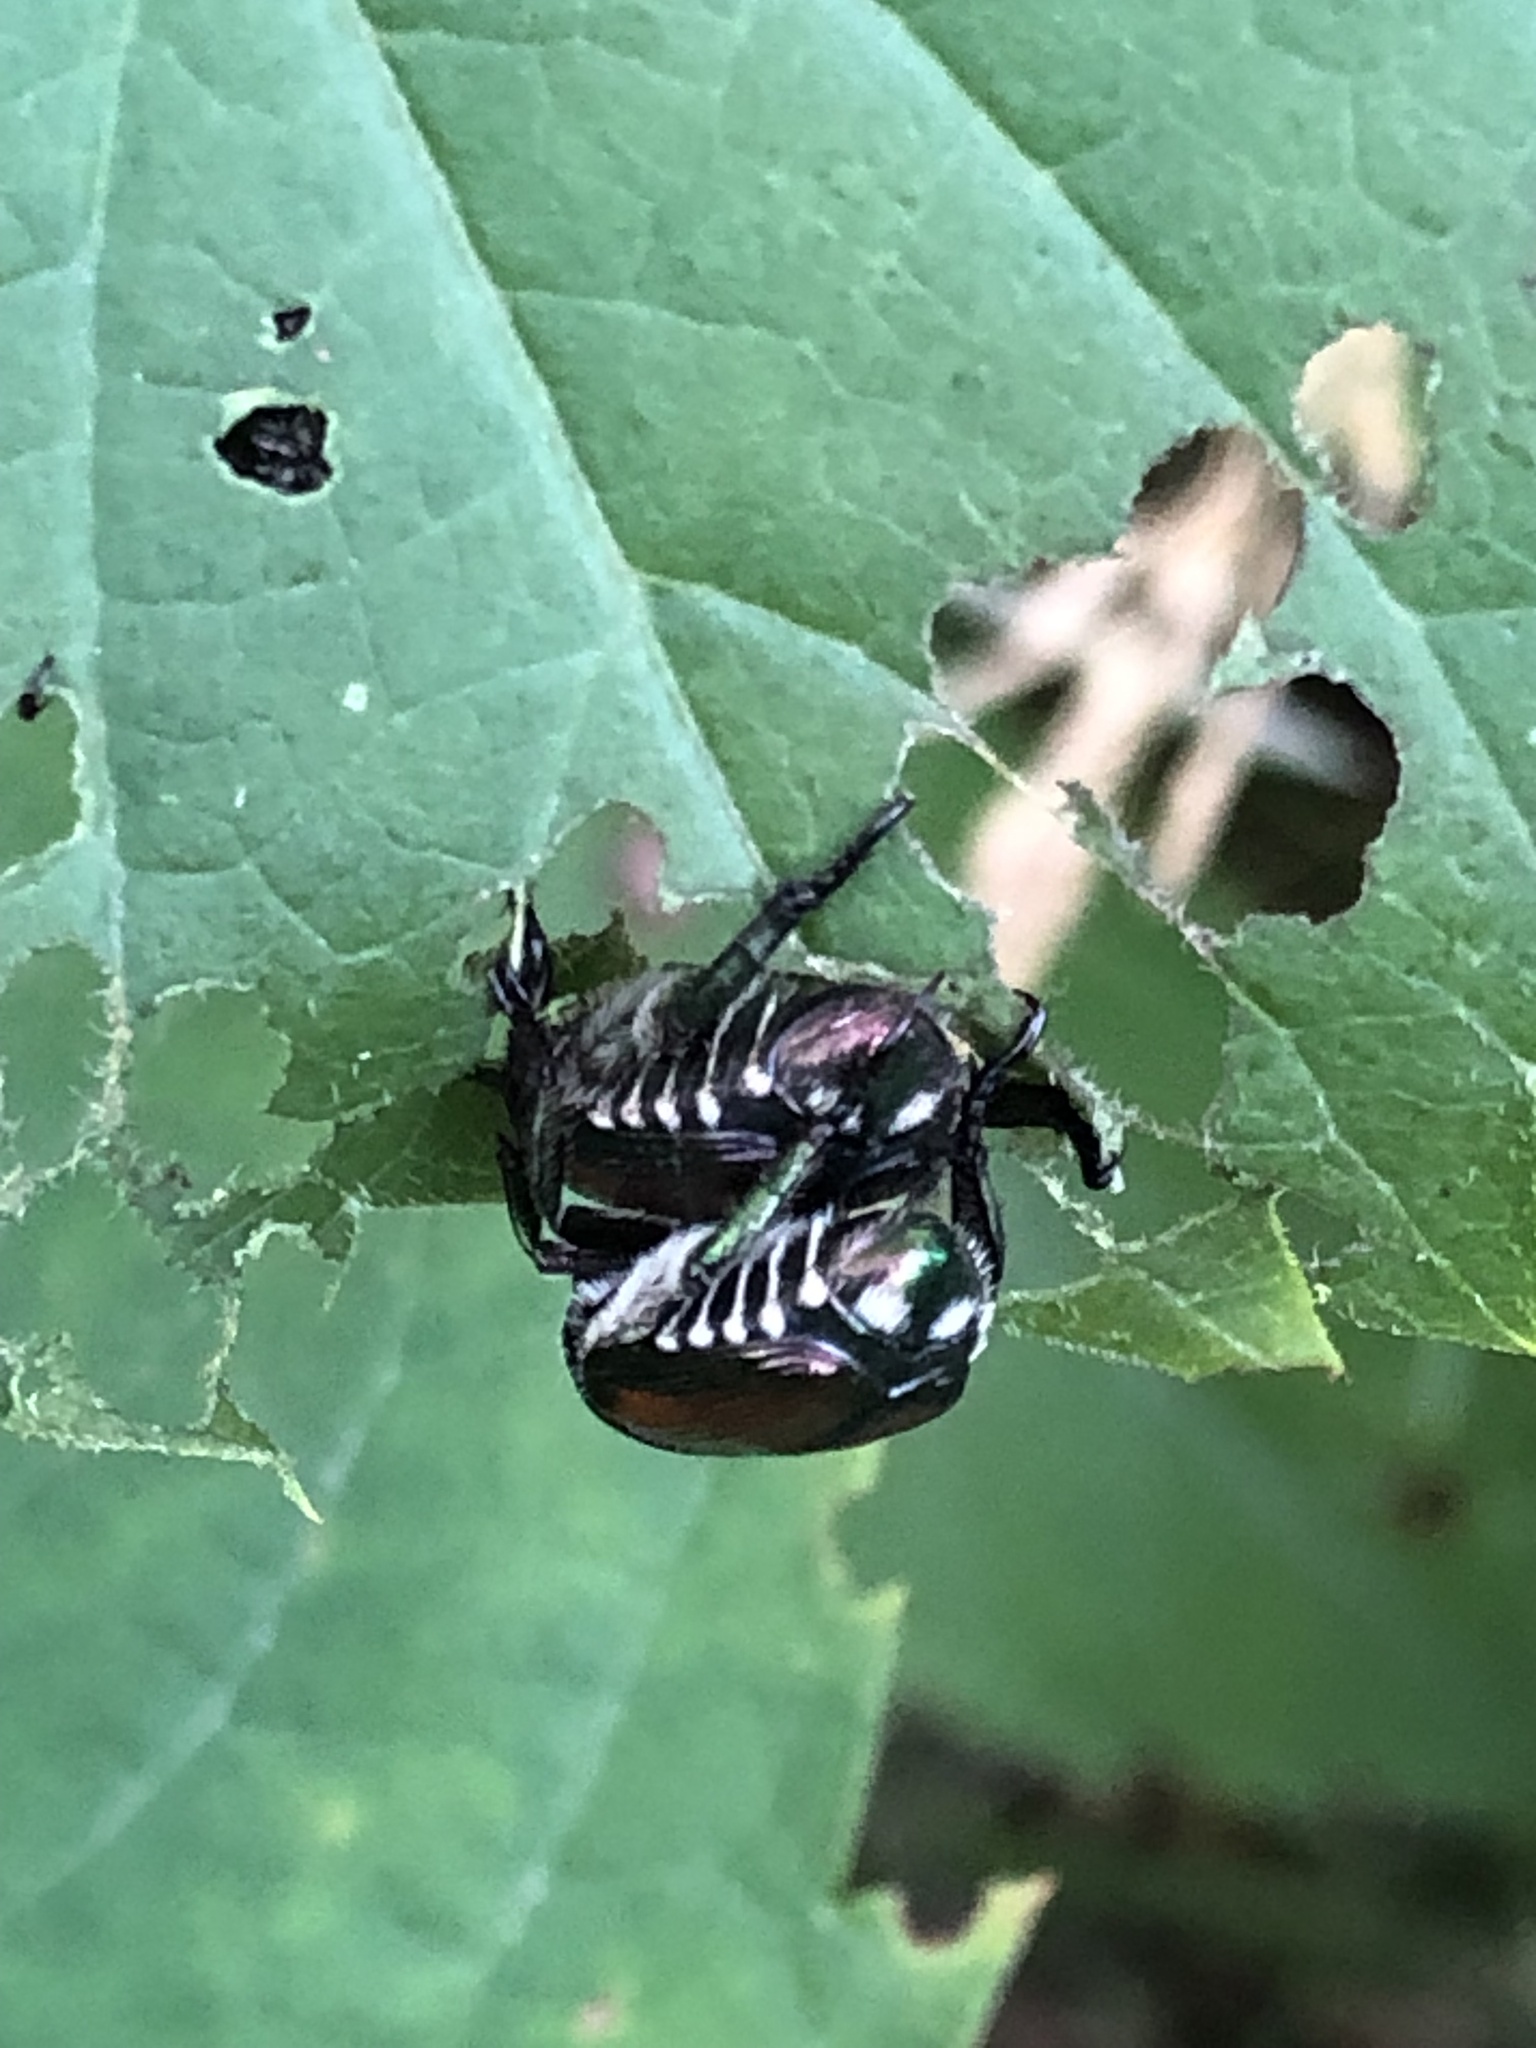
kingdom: Animalia
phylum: Arthropoda
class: Insecta
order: Coleoptera
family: Scarabaeidae
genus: Popillia
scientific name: Popillia japonica
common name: Japanese beetle
